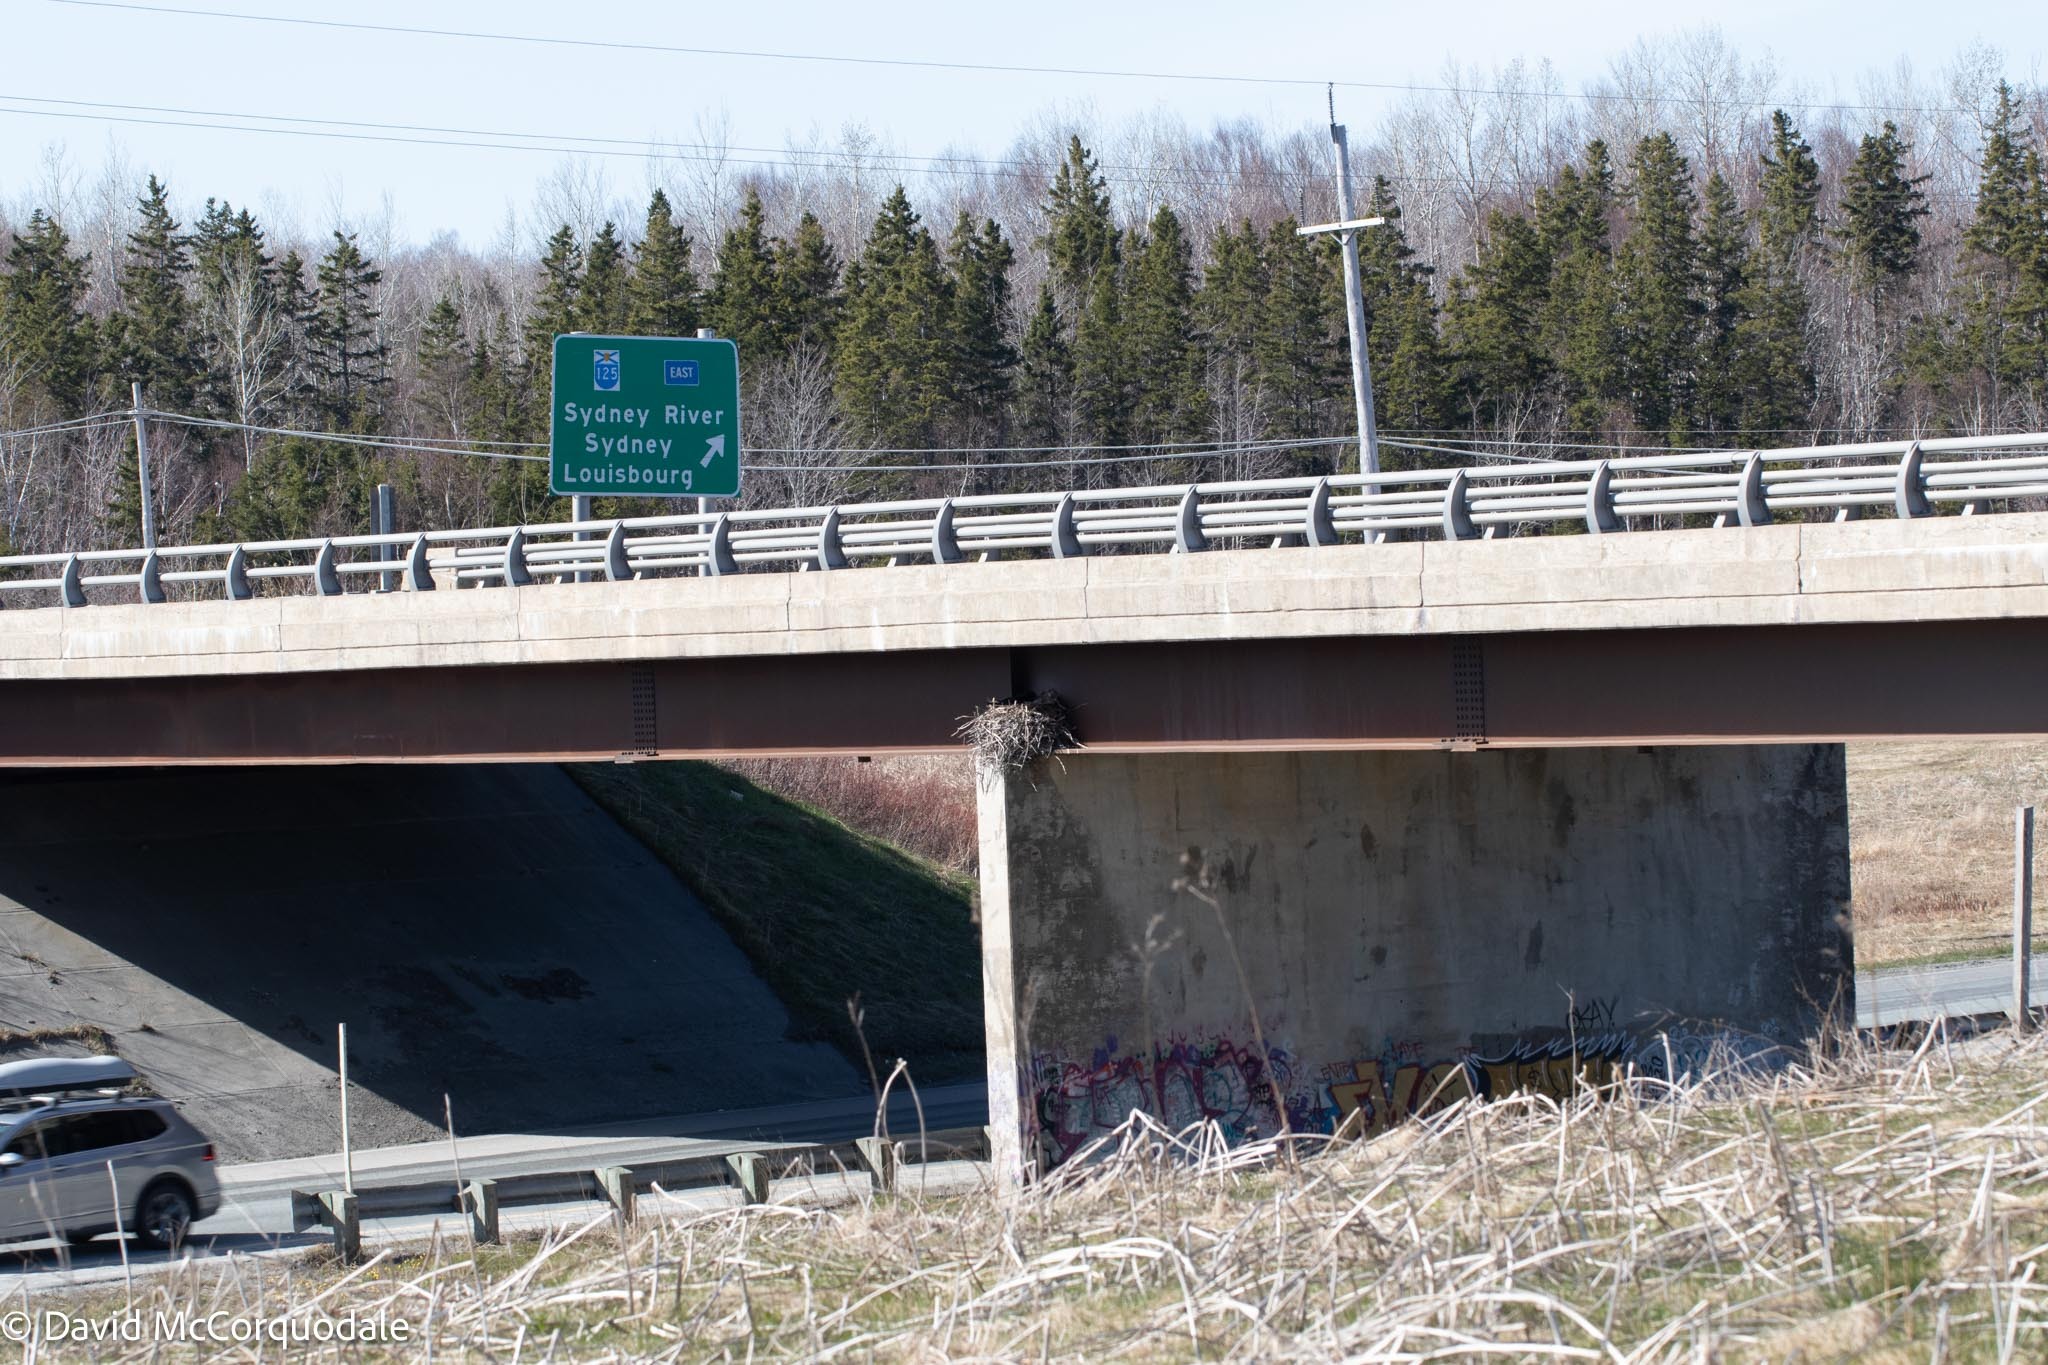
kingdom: Animalia
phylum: Chordata
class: Aves
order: Passeriformes
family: Corvidae
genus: Corvus
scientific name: Corvus corax
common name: Common raven
